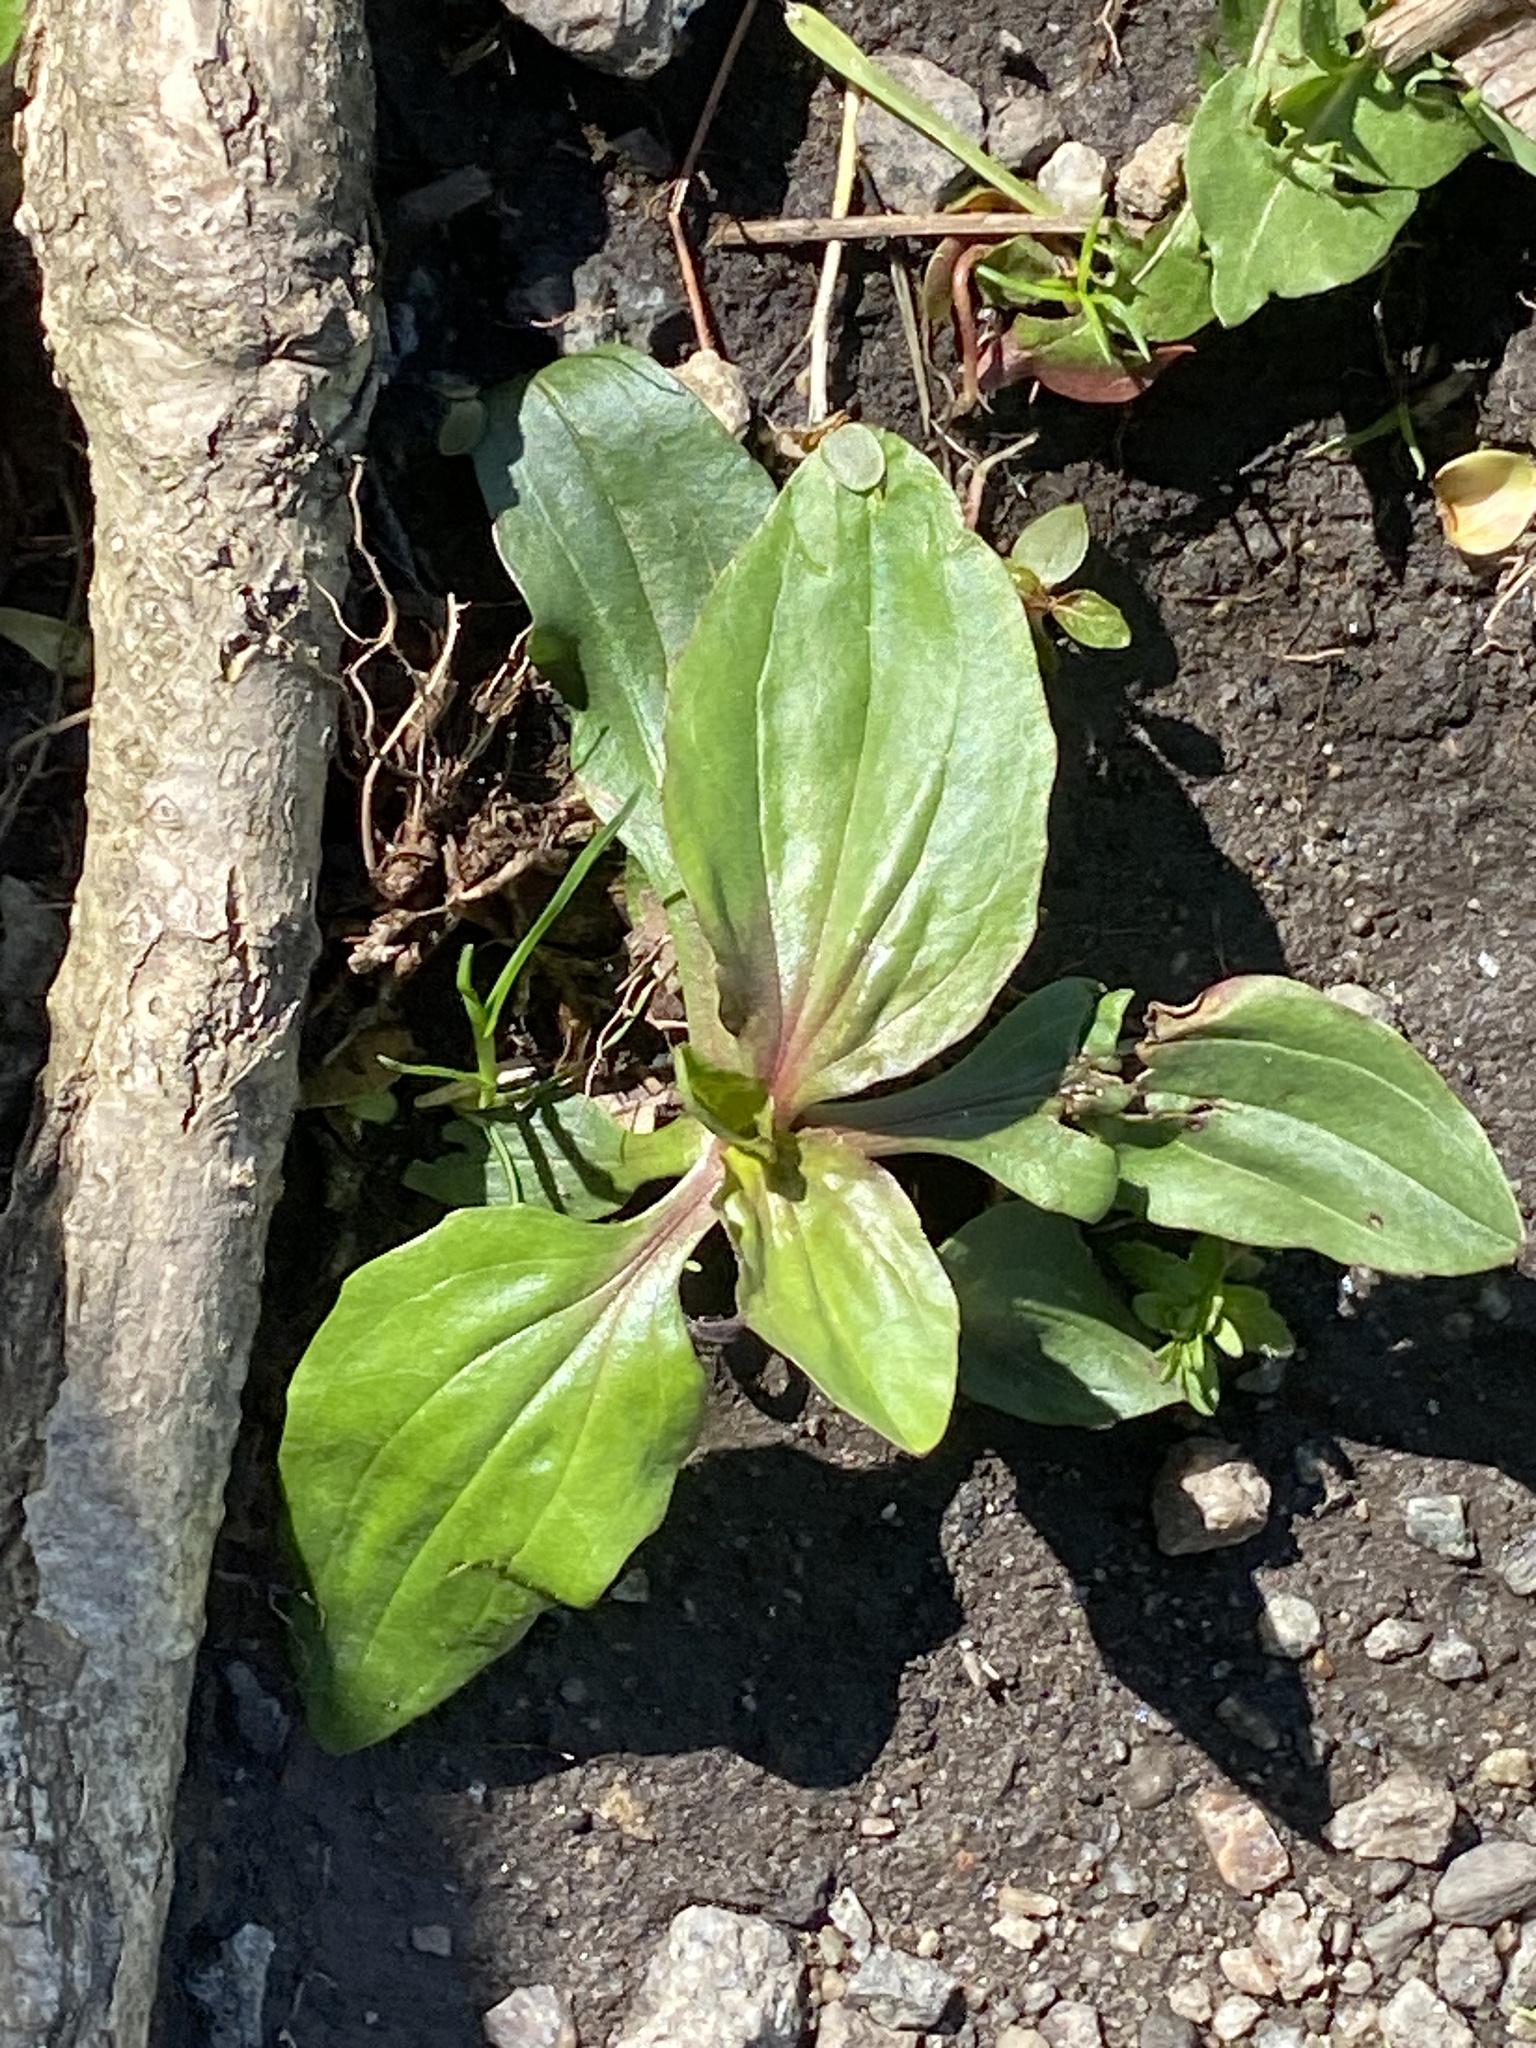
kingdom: Plantae
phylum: Tracheophyta
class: Magnoliopsida
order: Lamiales
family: Plantaginaceae
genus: Plantago
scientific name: Plantago rugelii
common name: American plantain
